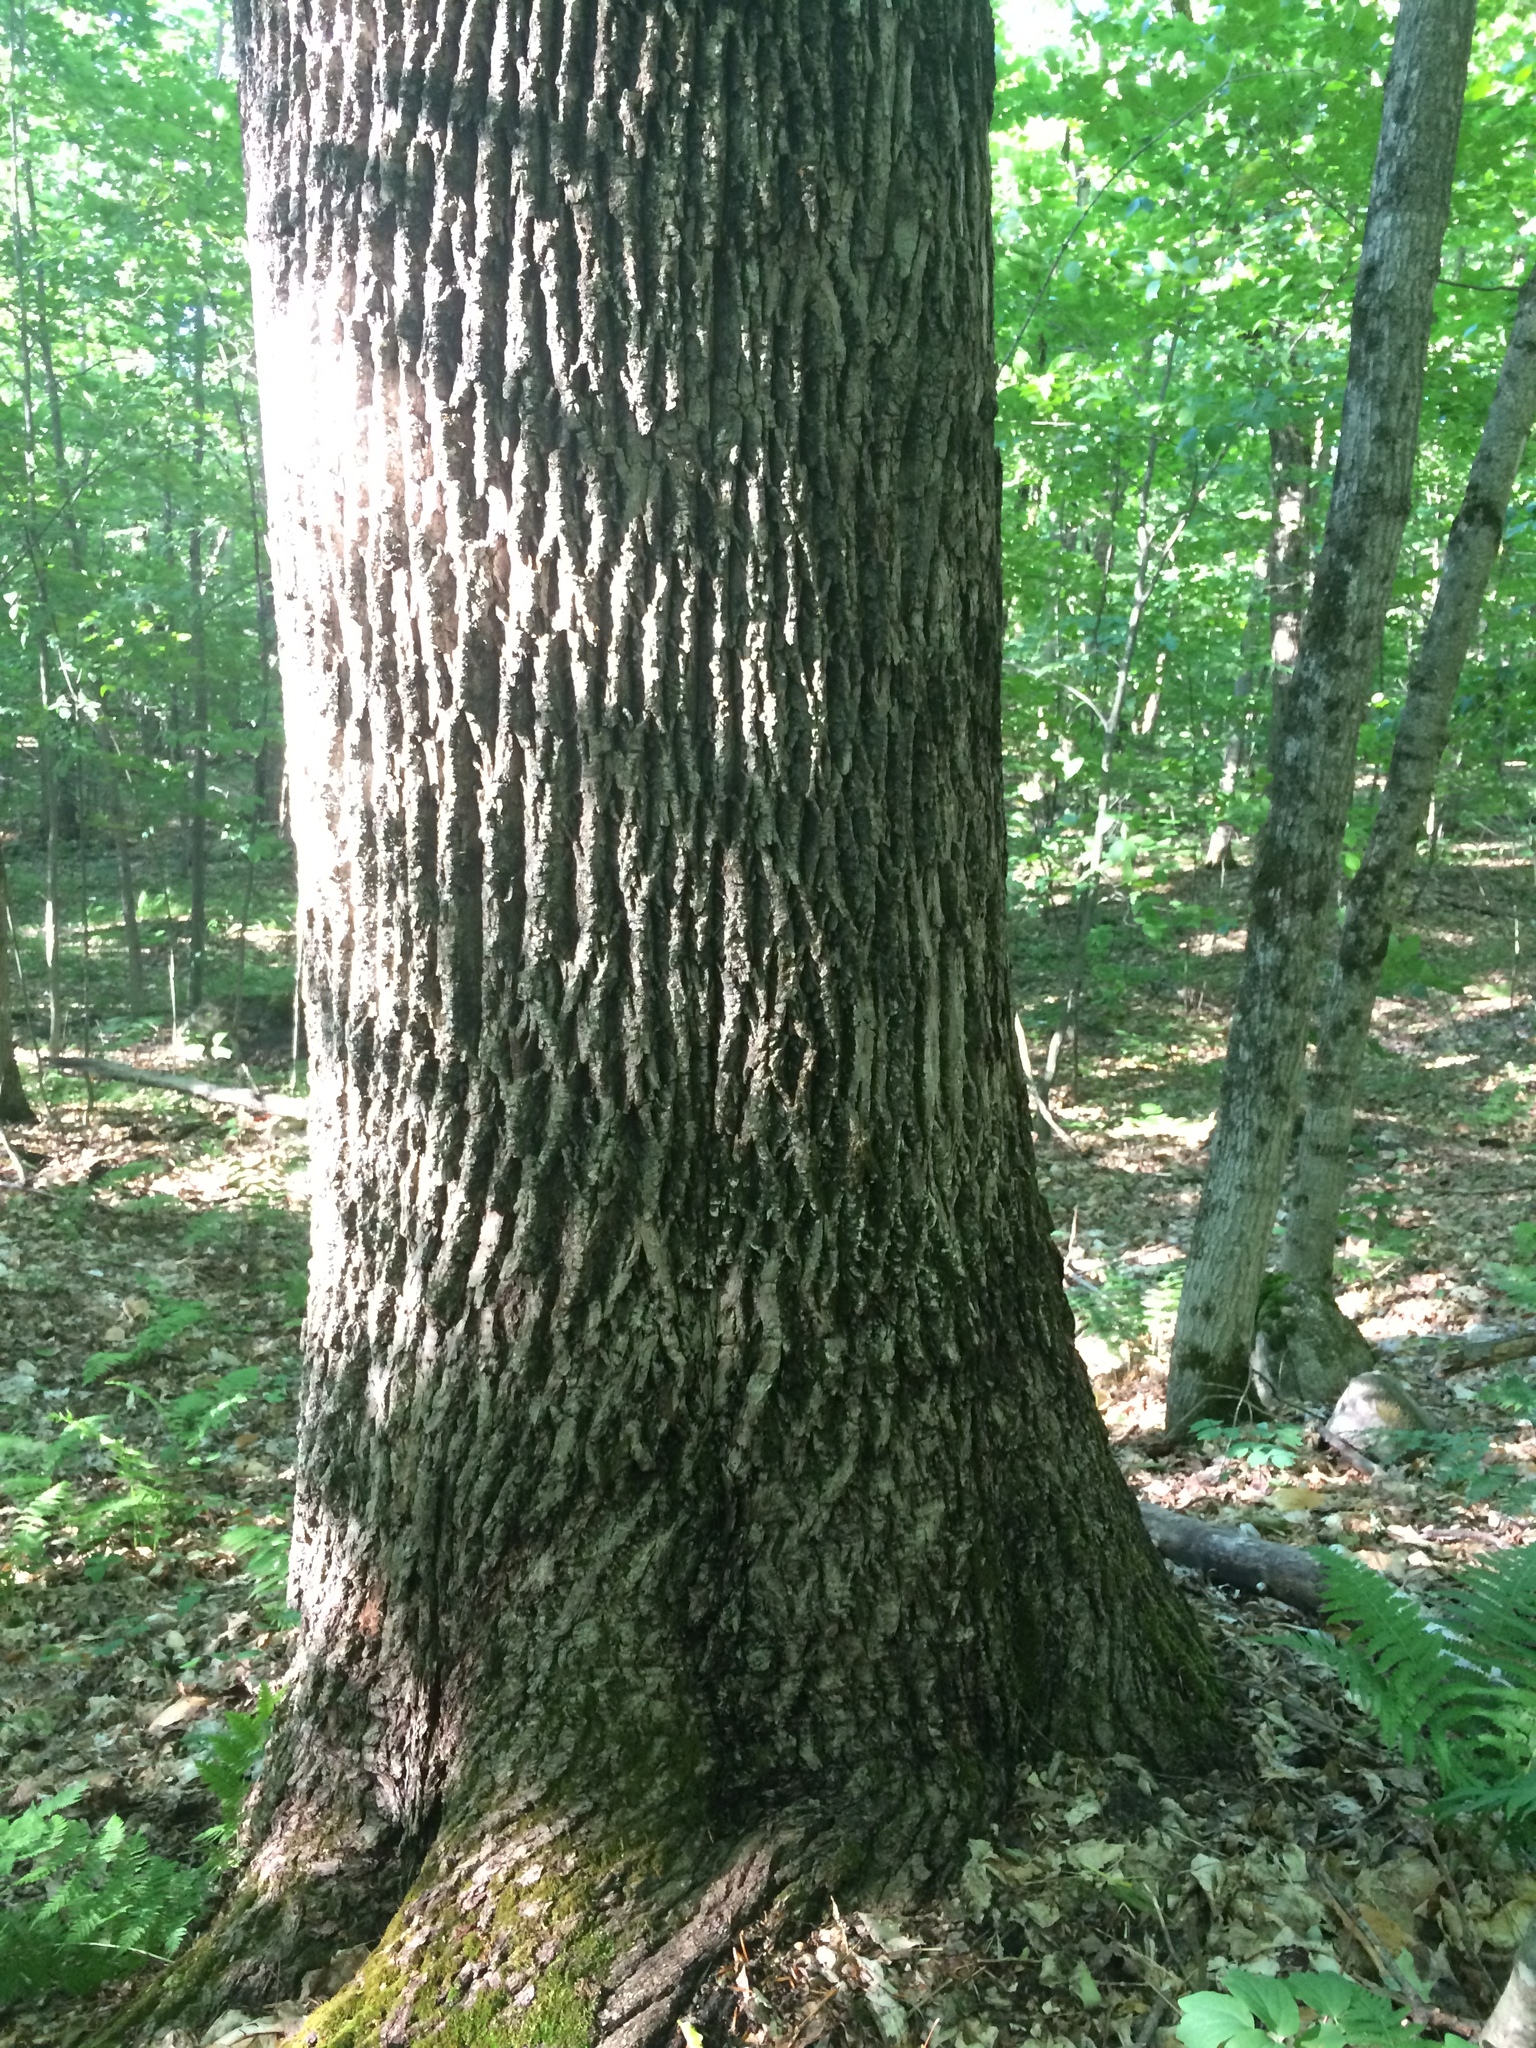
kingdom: Plantae
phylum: Tracheophyta
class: Magnoliopsida
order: Lamiales
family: Oleaceae
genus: Fraxinus
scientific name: Fraxinus americana
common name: White ash
